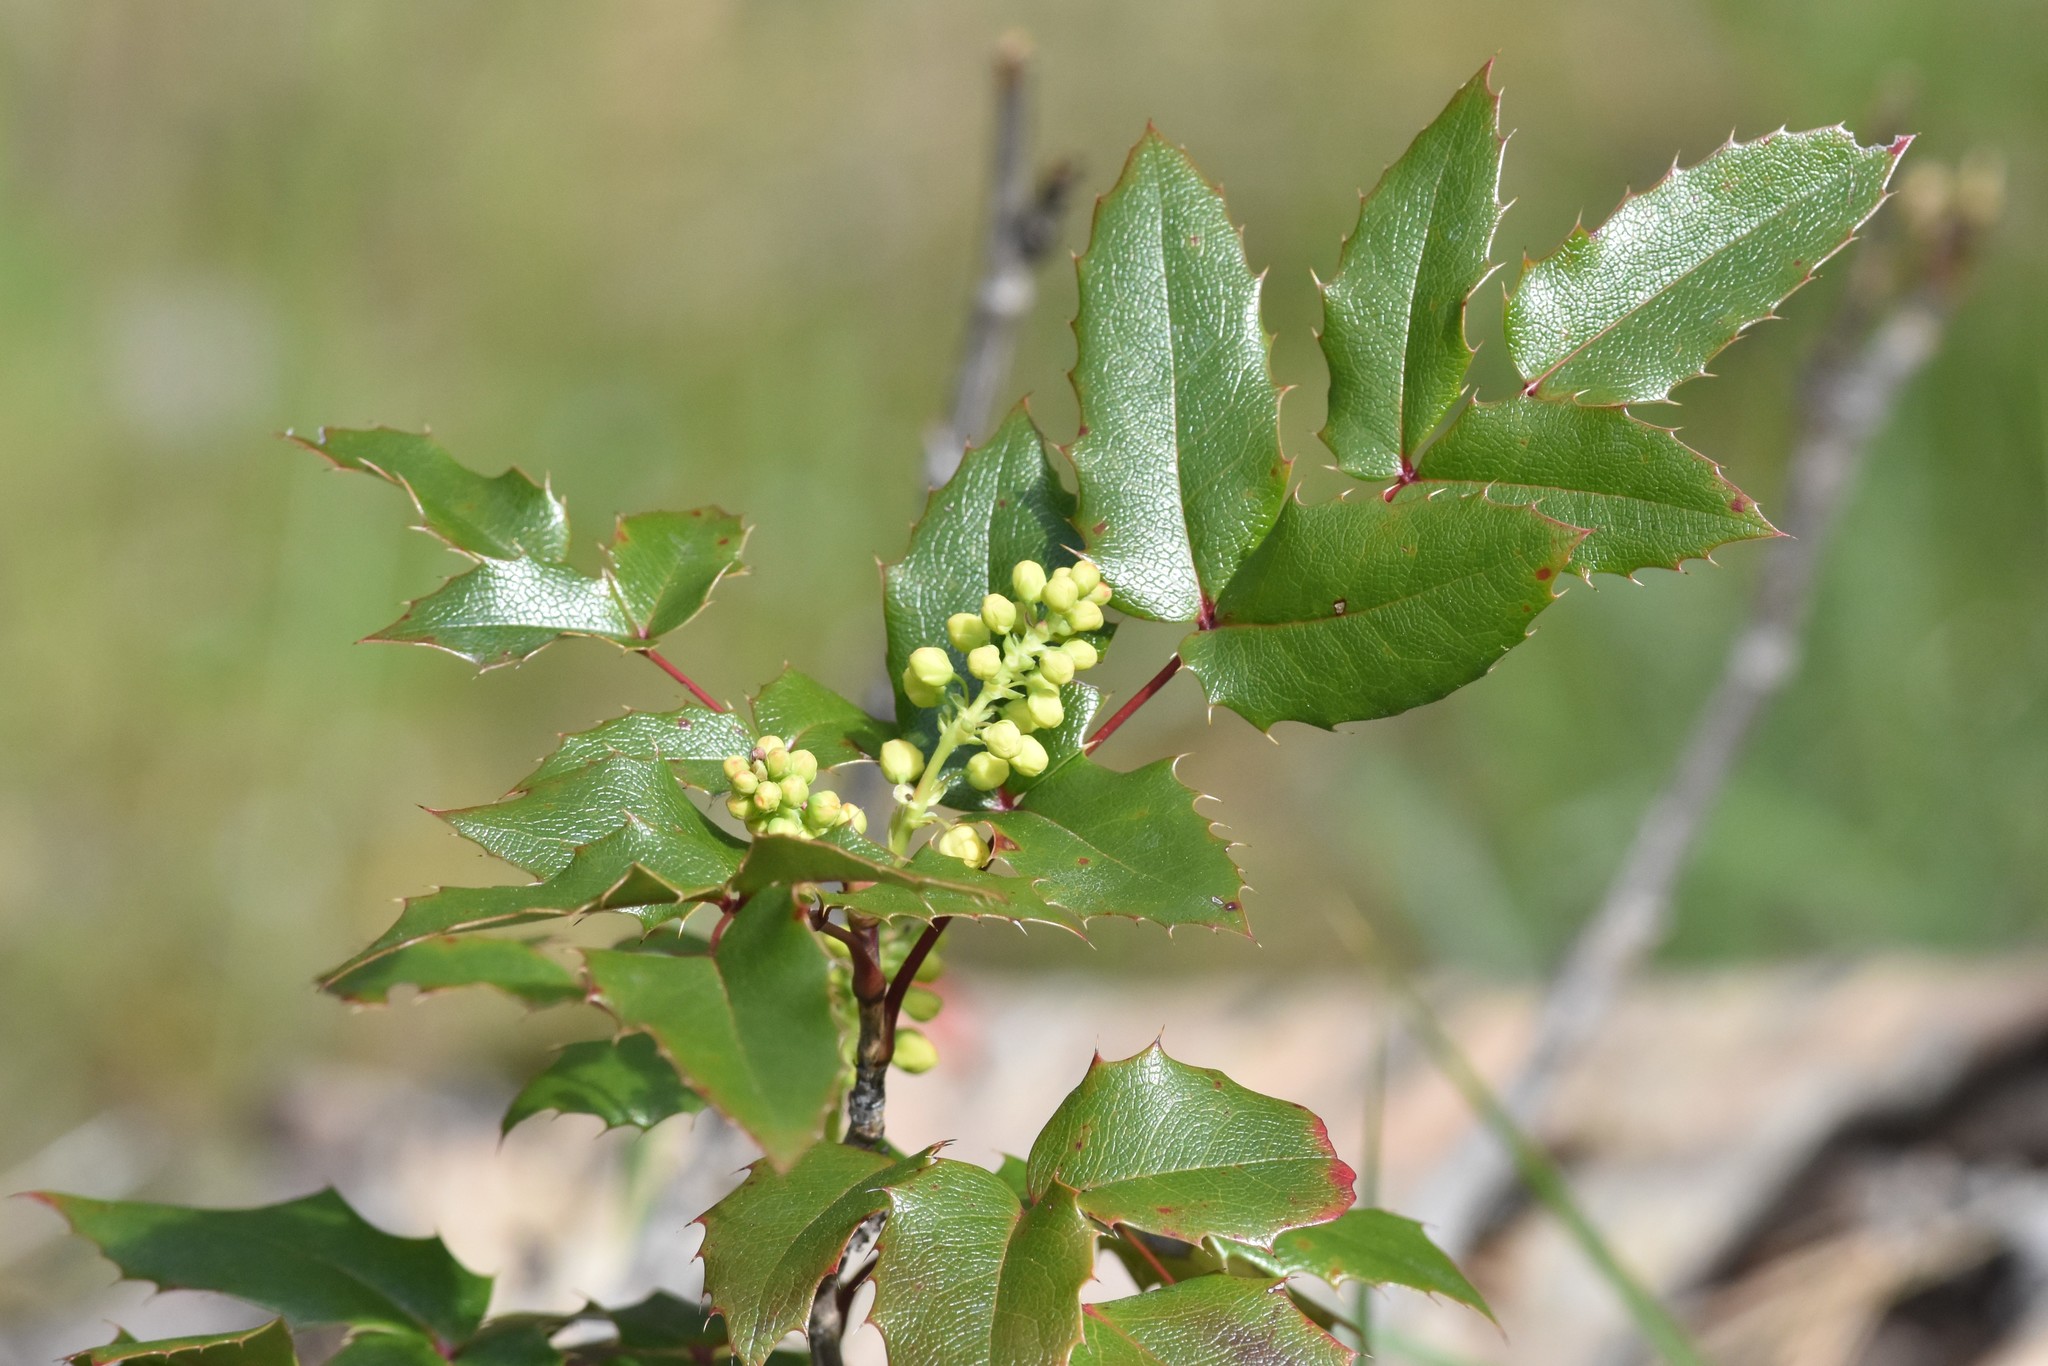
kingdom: Plantae
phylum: Tracheophyta
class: Magnoliopsida
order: Ranunculales
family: Berberidaceae
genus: Mahonia
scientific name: Mahonia aquifolium
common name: Oregon-grape
